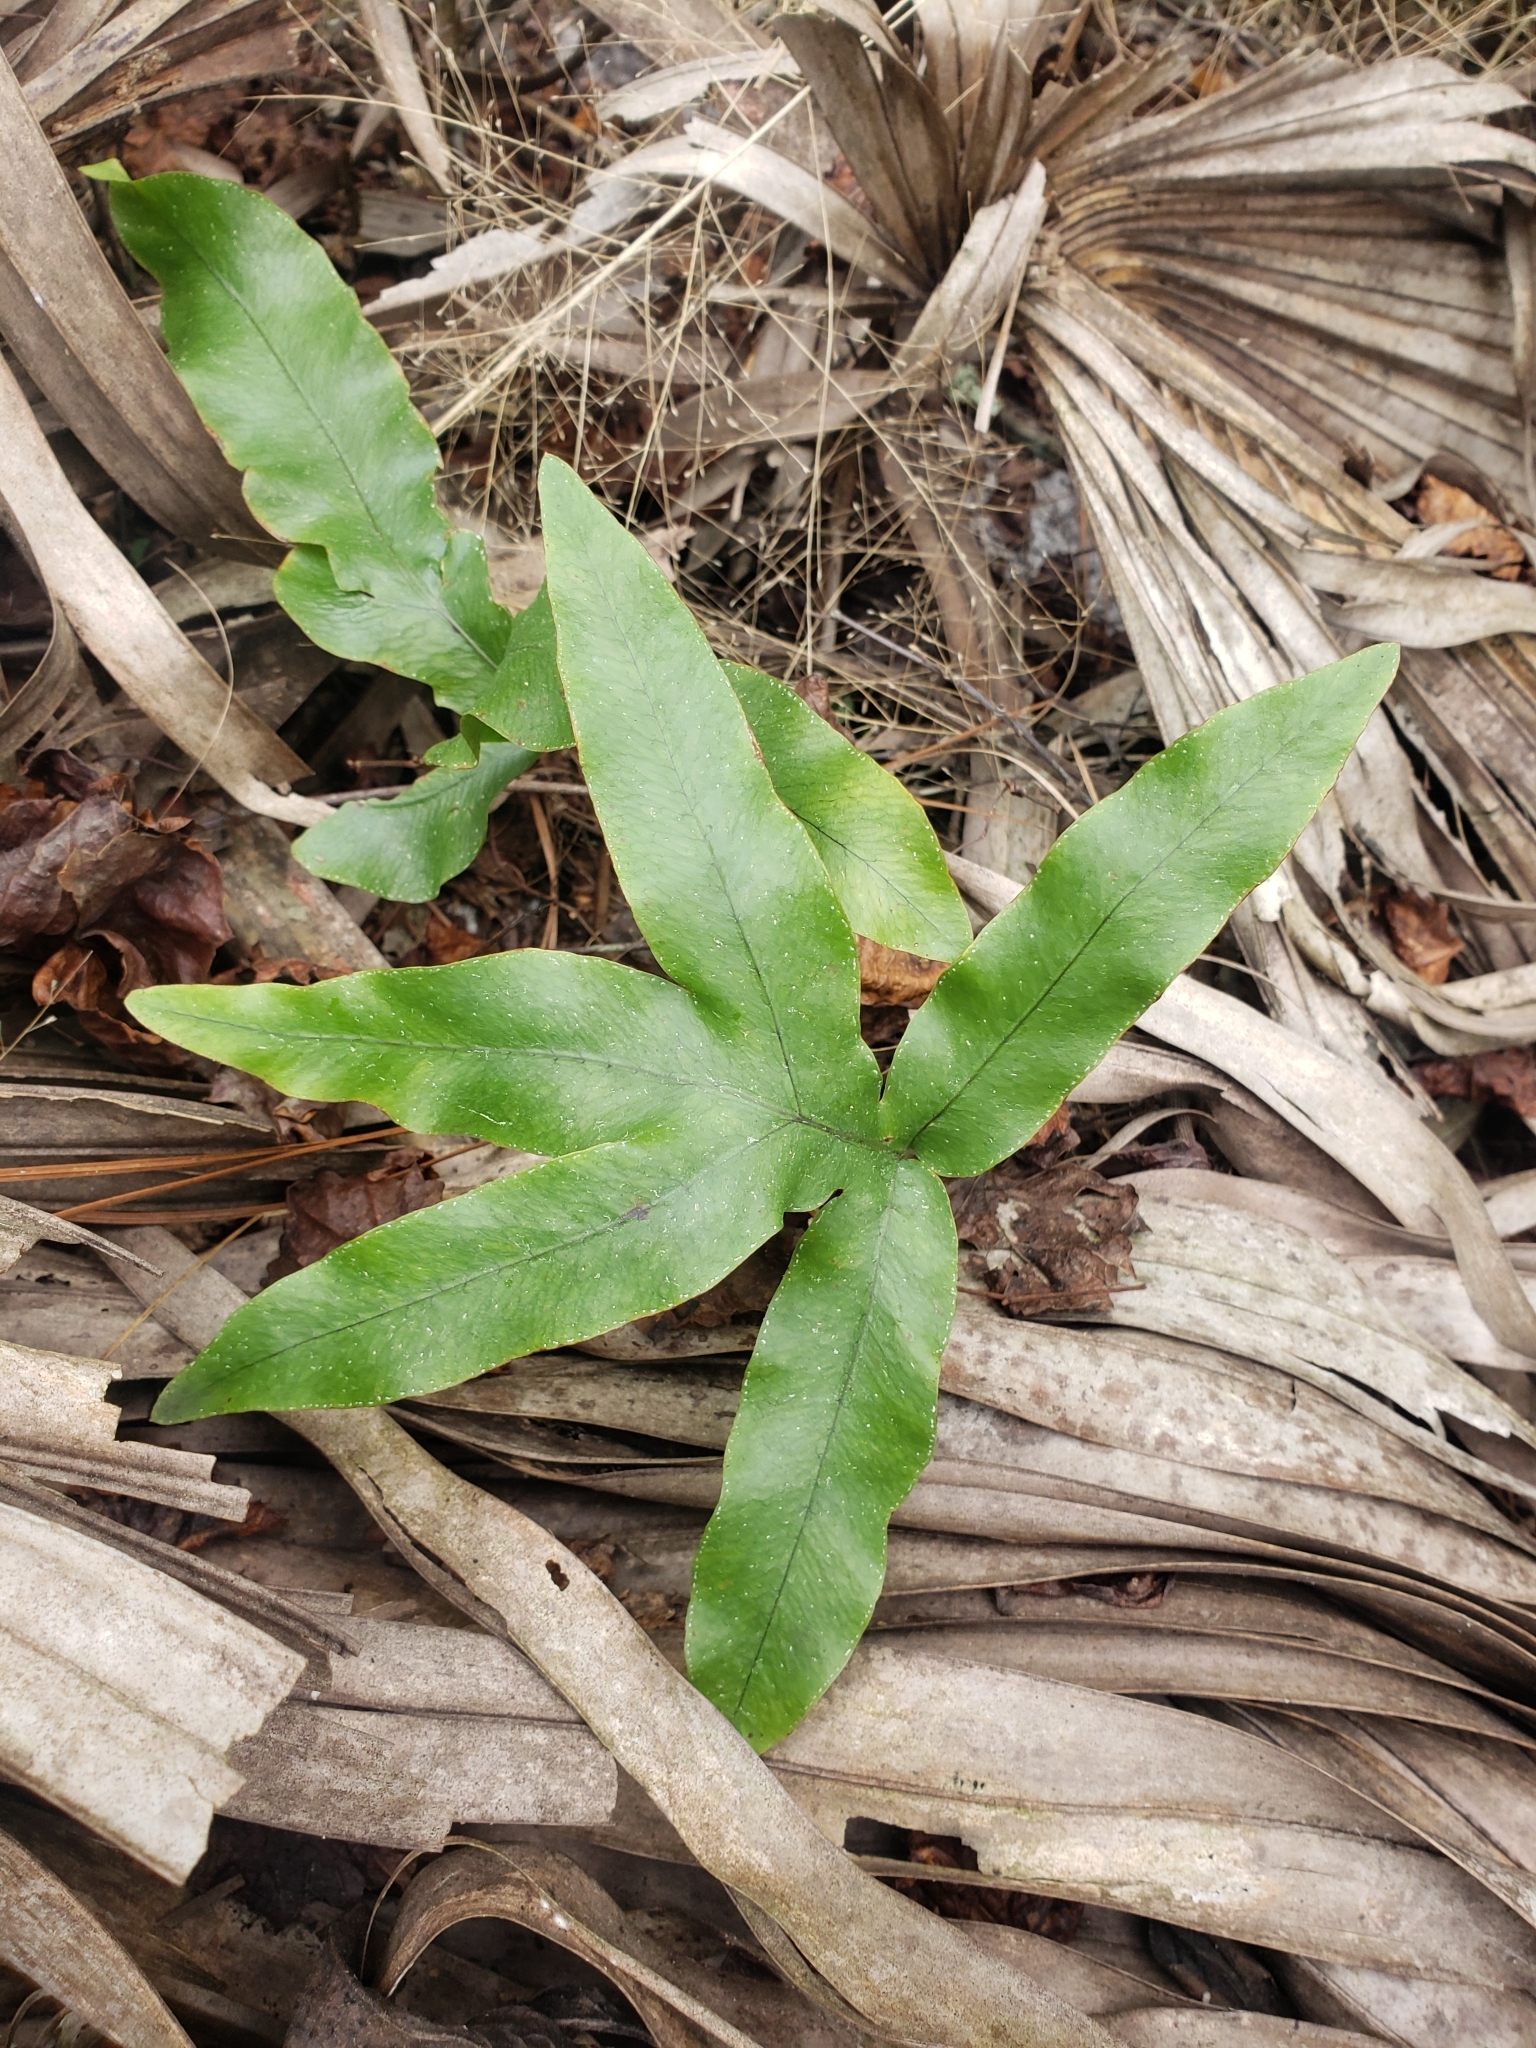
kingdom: Plantae
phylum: Tracheophyta
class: Polypodiopsida
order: Polypodiales
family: Polypodiaceae
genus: Phlebodium
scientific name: Phlebodium aureum
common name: Gold-foot fern
